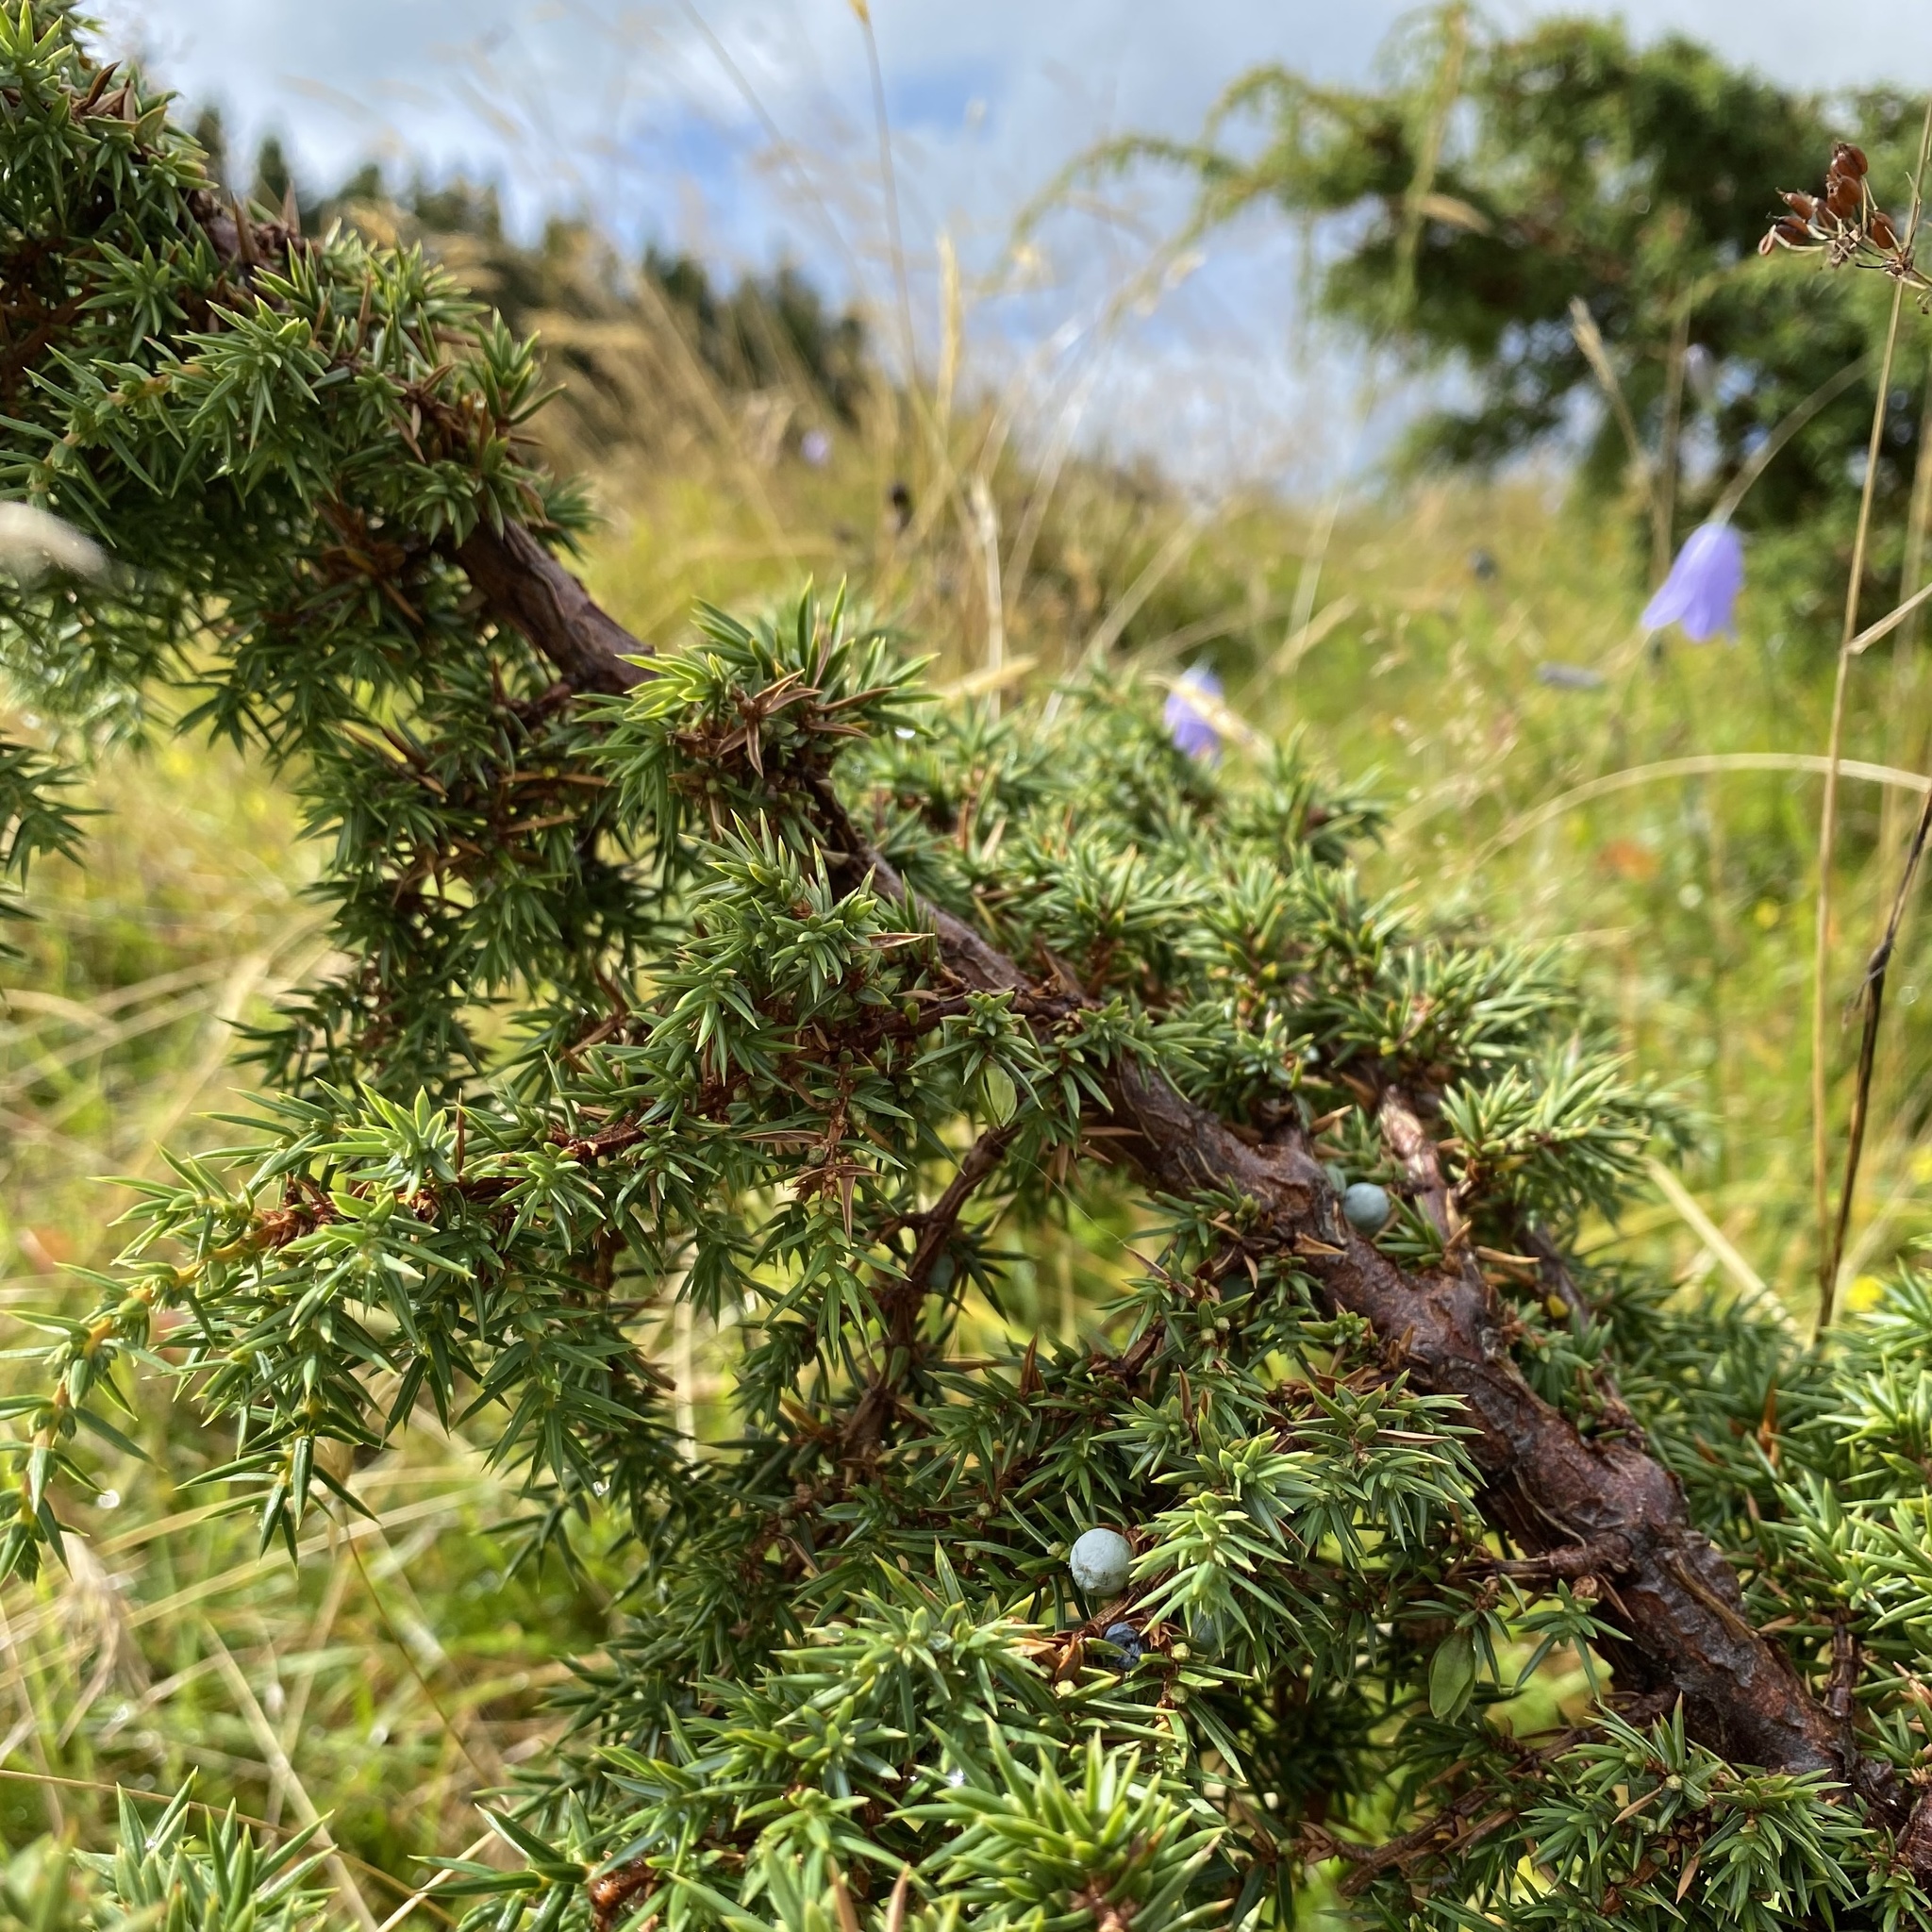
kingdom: Plantae
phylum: Tracheophyta
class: Pinopsida
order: Pinales
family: Cupressaceae
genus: Juniperus
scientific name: Juniperus communis
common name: Common juniper
